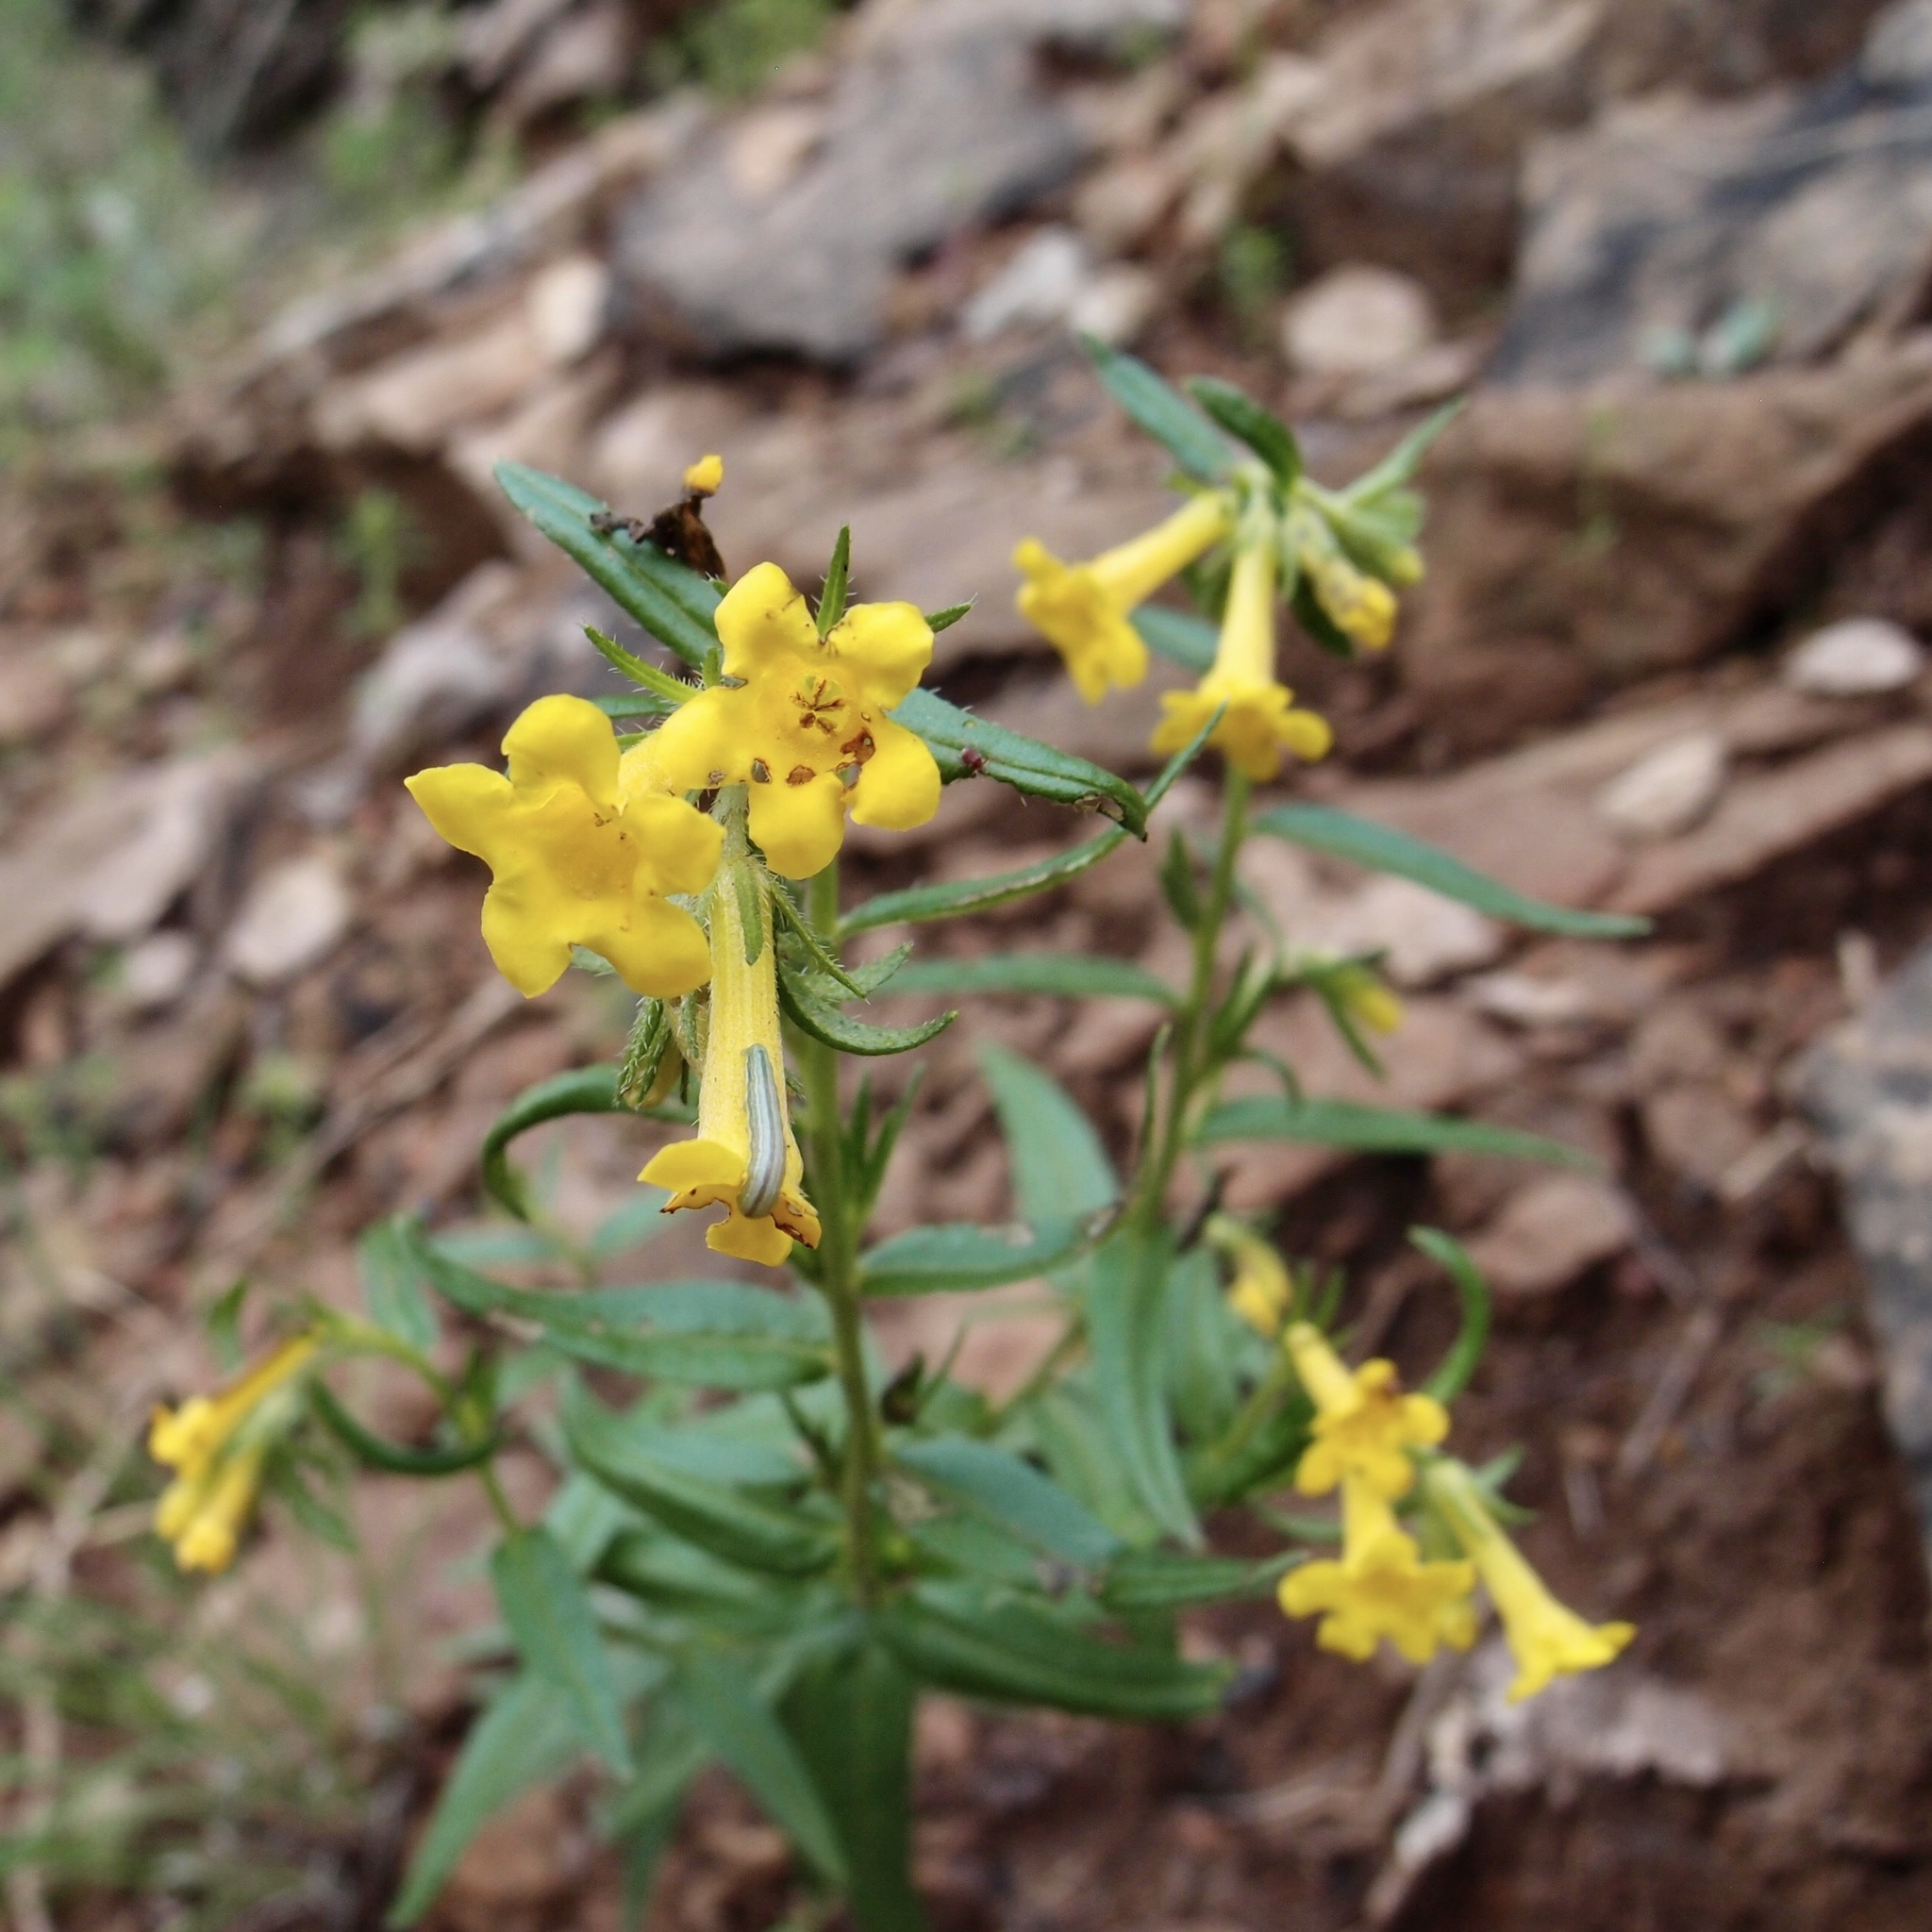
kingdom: Plantae
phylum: Tracheophyta
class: Magnoliopsida
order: Boraginales
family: Boraginaceae
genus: Lithospermum
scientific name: Lithospermum multiflorum
